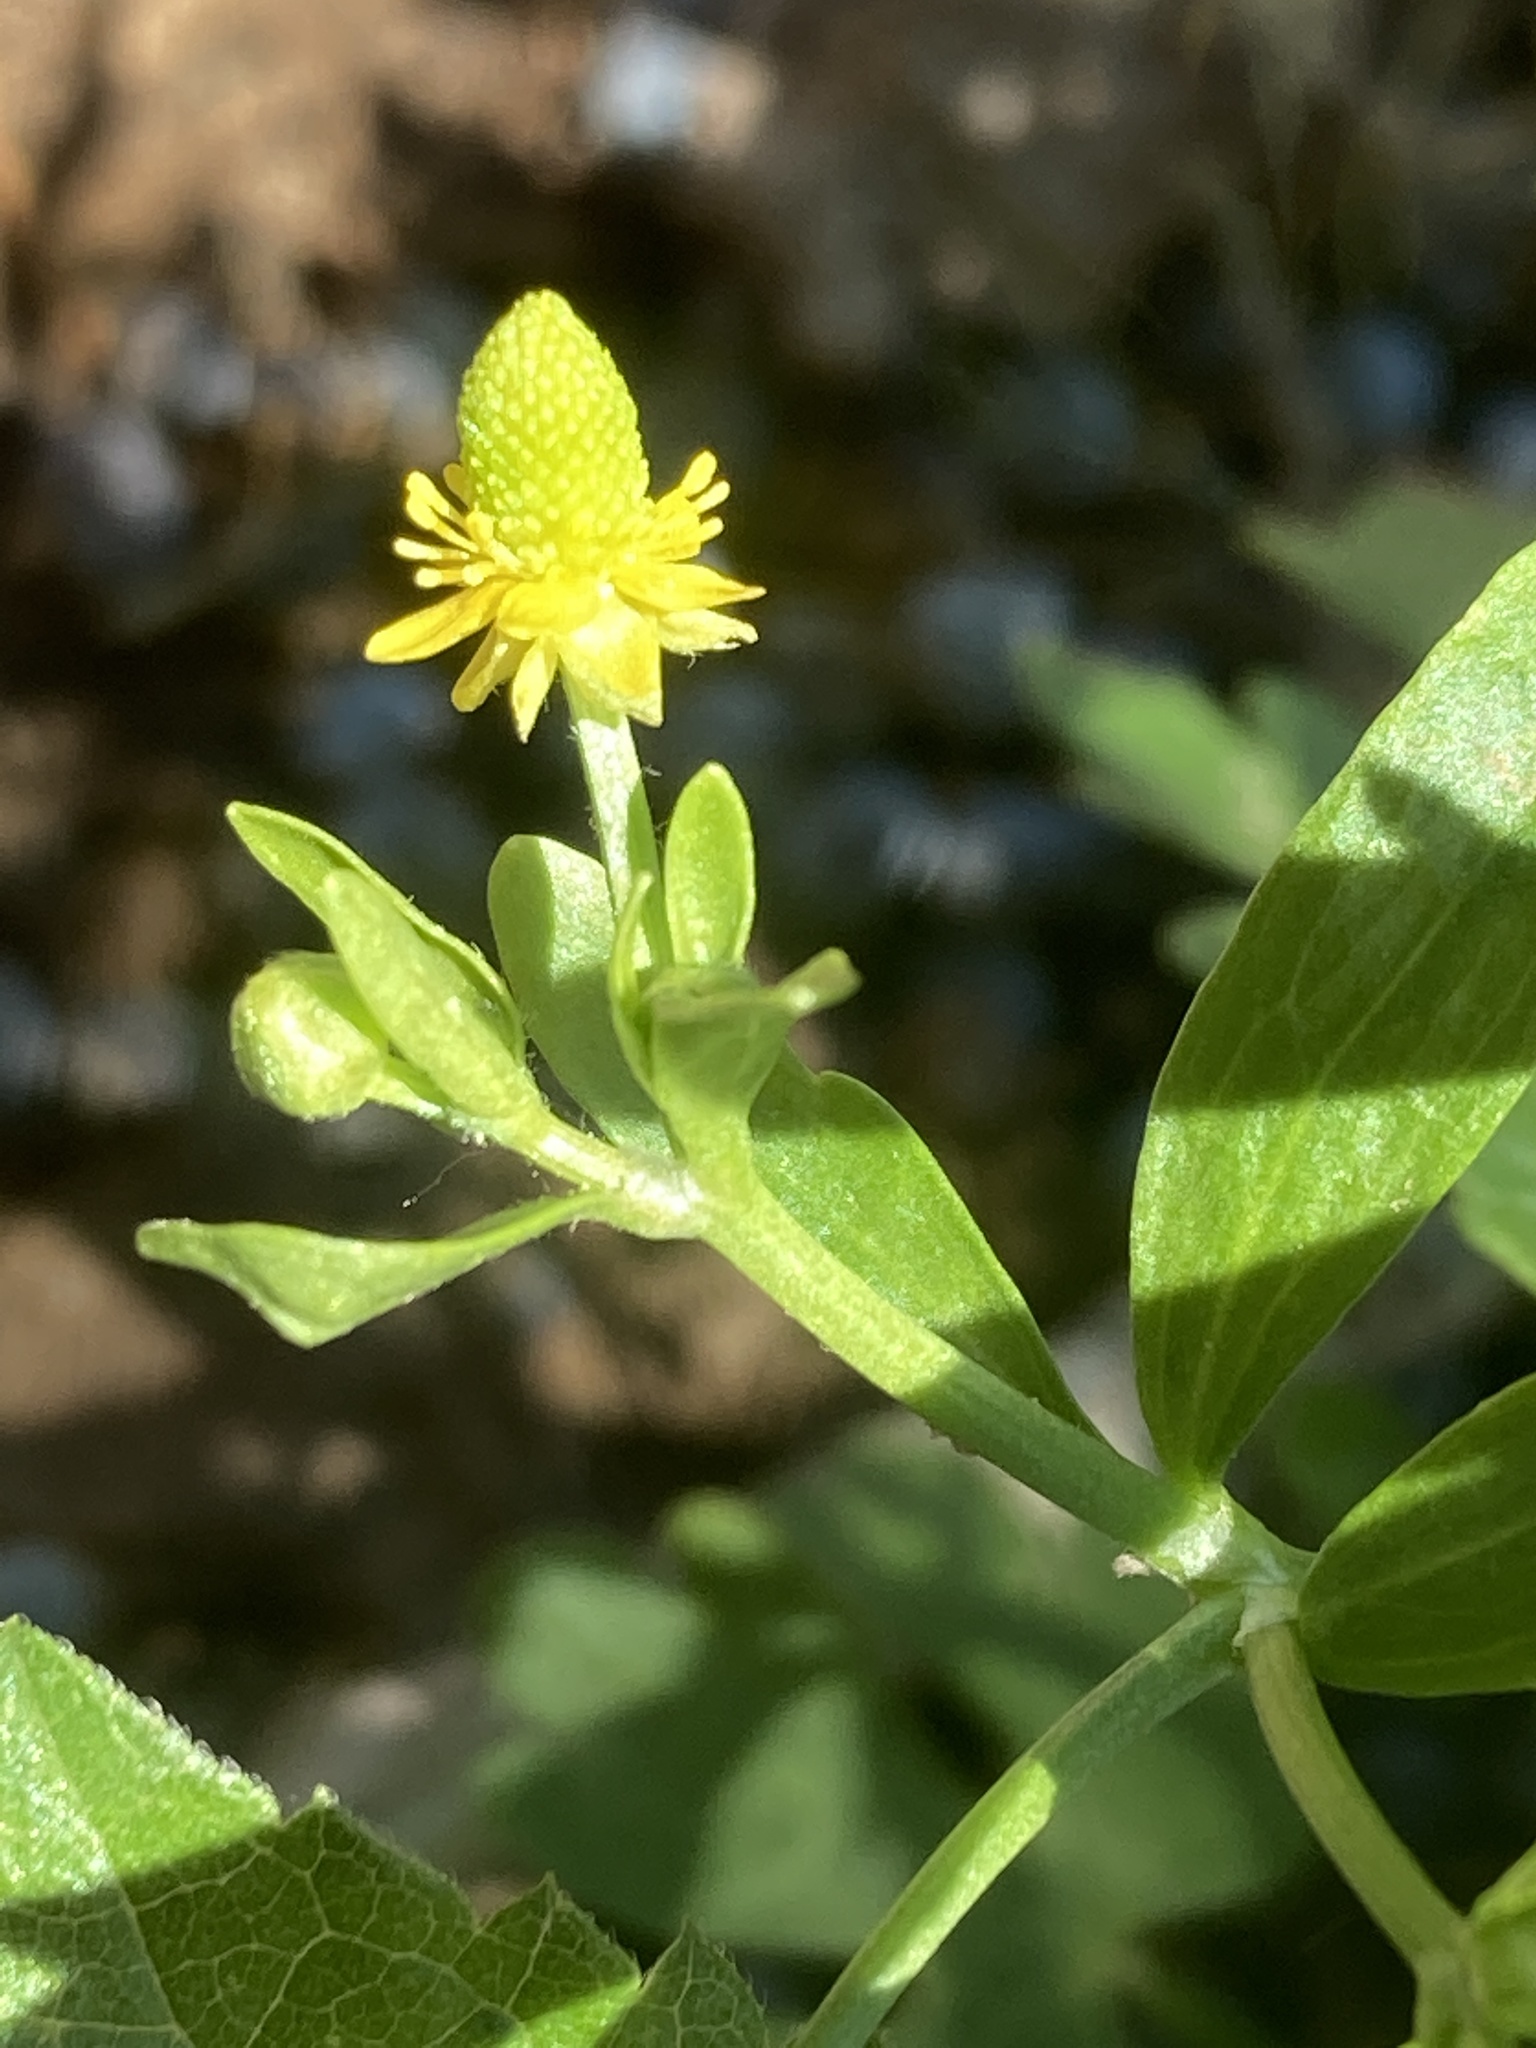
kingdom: Plantae
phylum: Tracheophyta
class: Magnoliopsida
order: Ranunculales
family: Ranunculaceae
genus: Ranunculus
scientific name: Ranunculus sceleratus
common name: Celery-leaved buttercup
